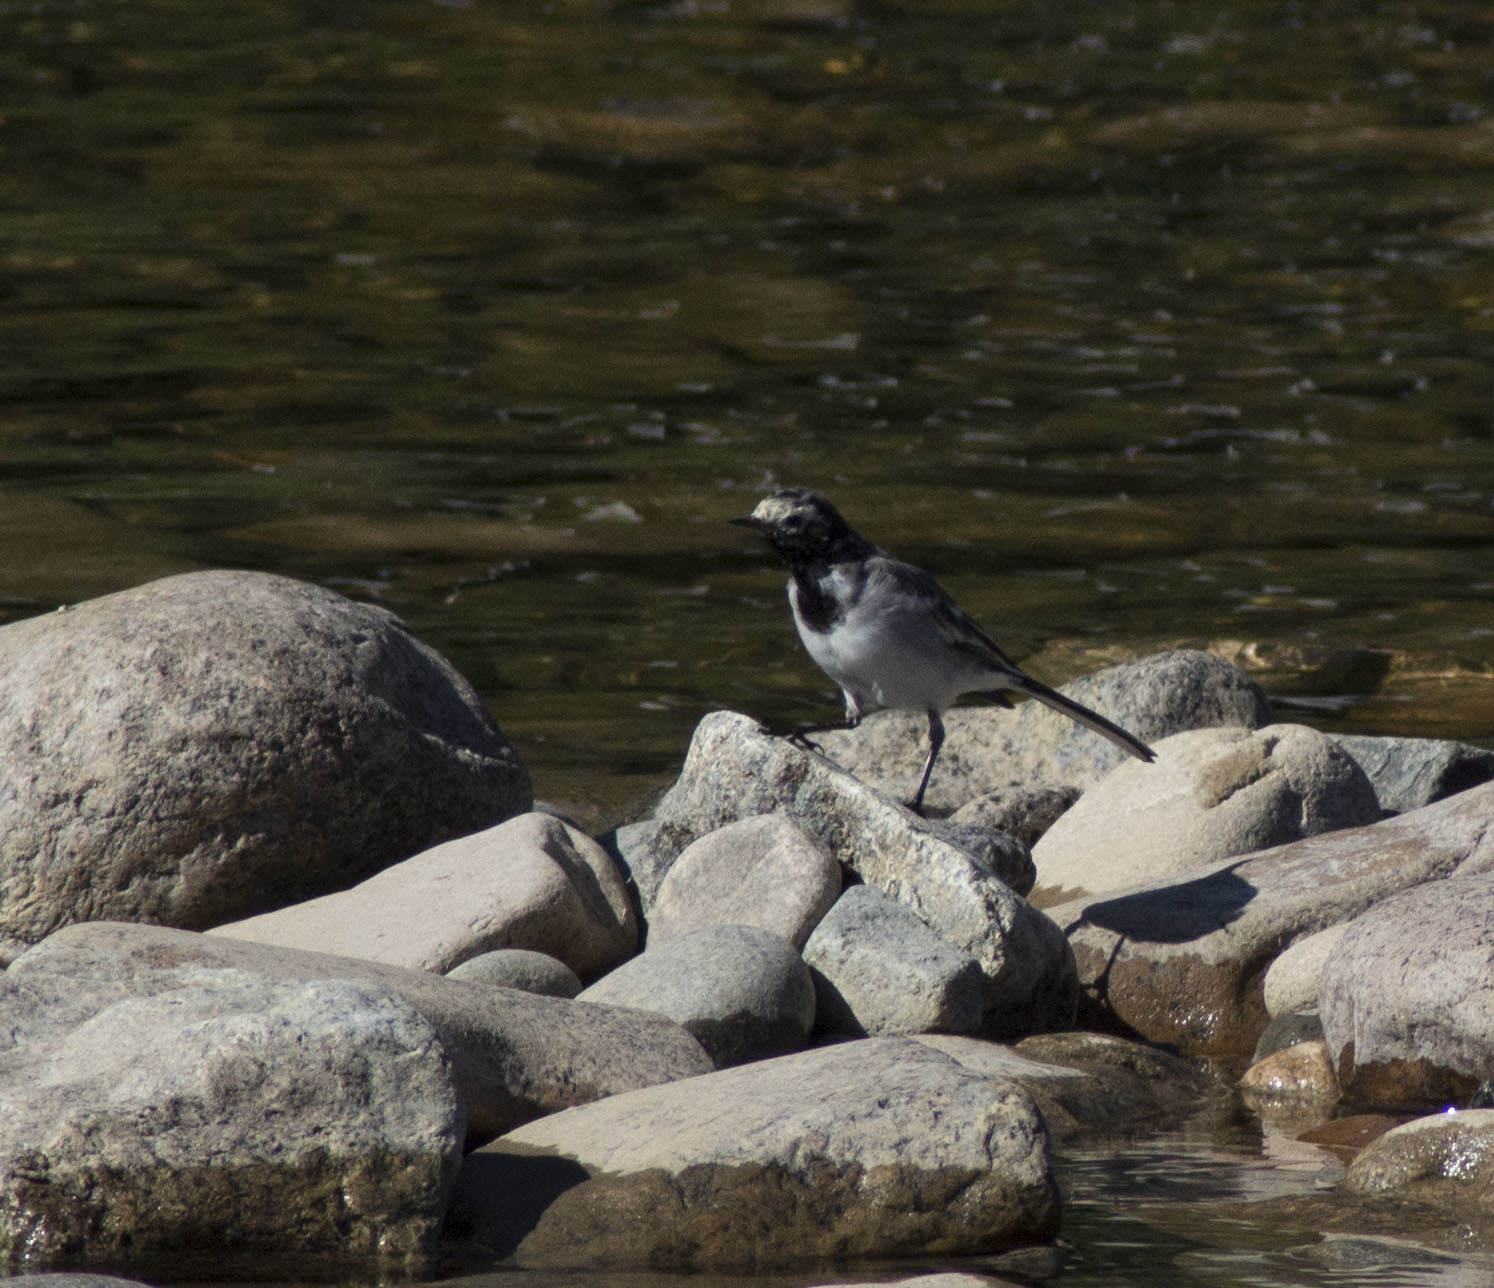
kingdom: Animalia
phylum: Chordata
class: Aves
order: Passeriformes
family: Motacillidae
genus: Motacilla
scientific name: Motacilla alba
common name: White wagtail
